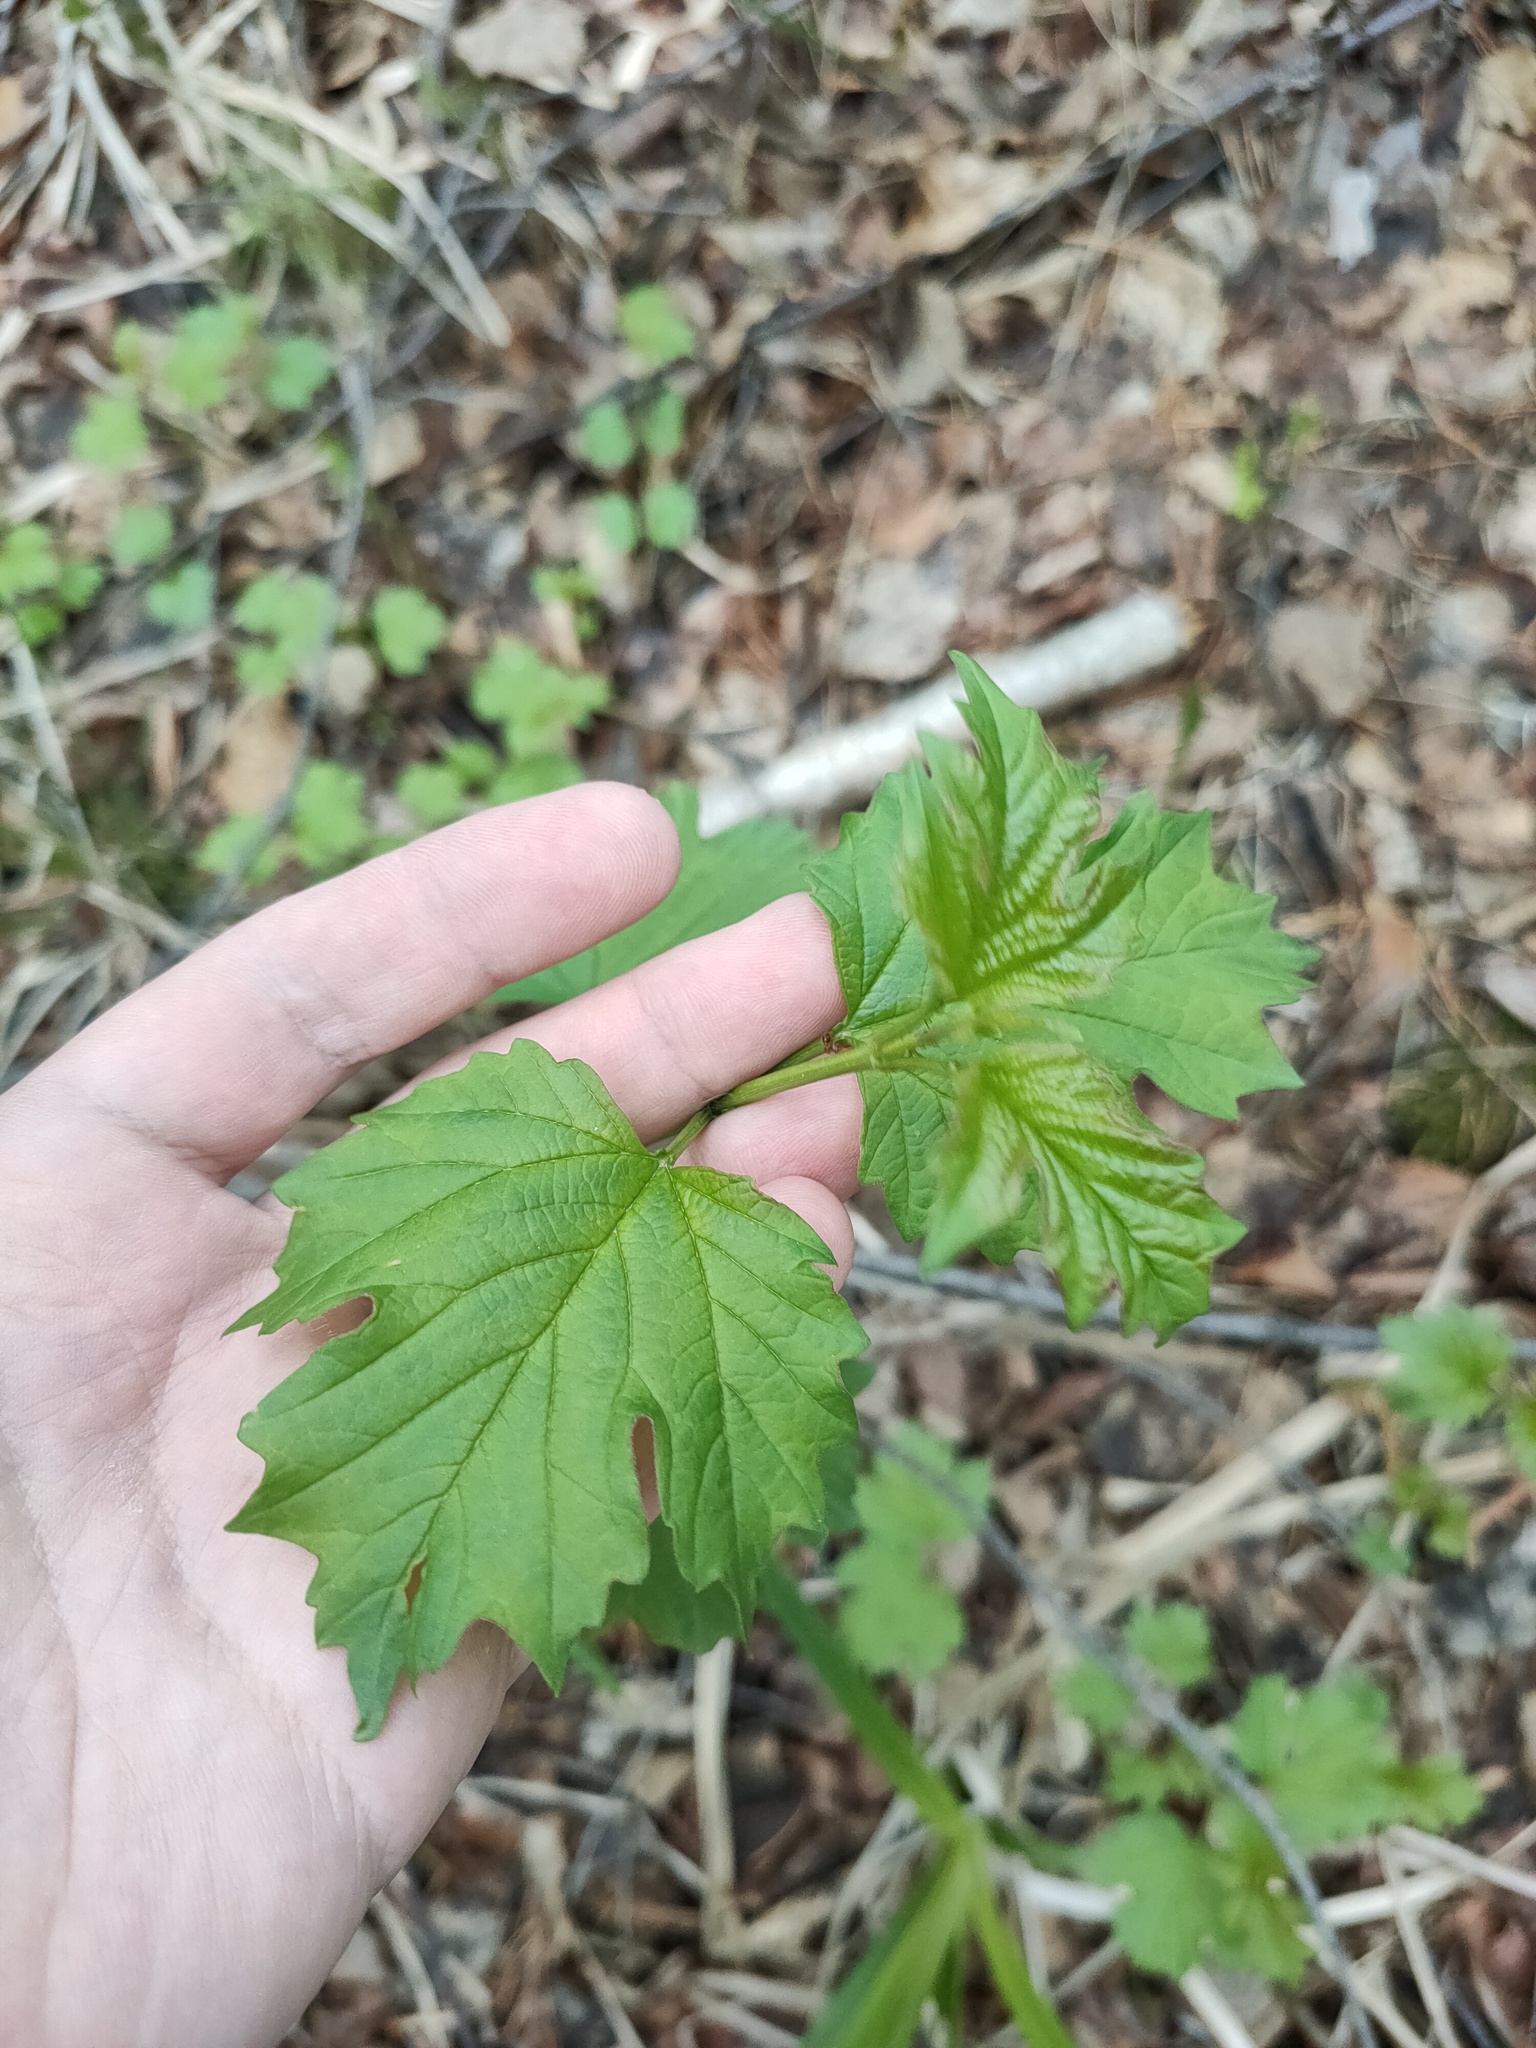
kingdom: Plantae
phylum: Tracheophyta
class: Magnoliopsida
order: Dipsacales
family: Viburnaceae
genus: Viburnum
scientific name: Viburnum opulus
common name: Guelder-rose
